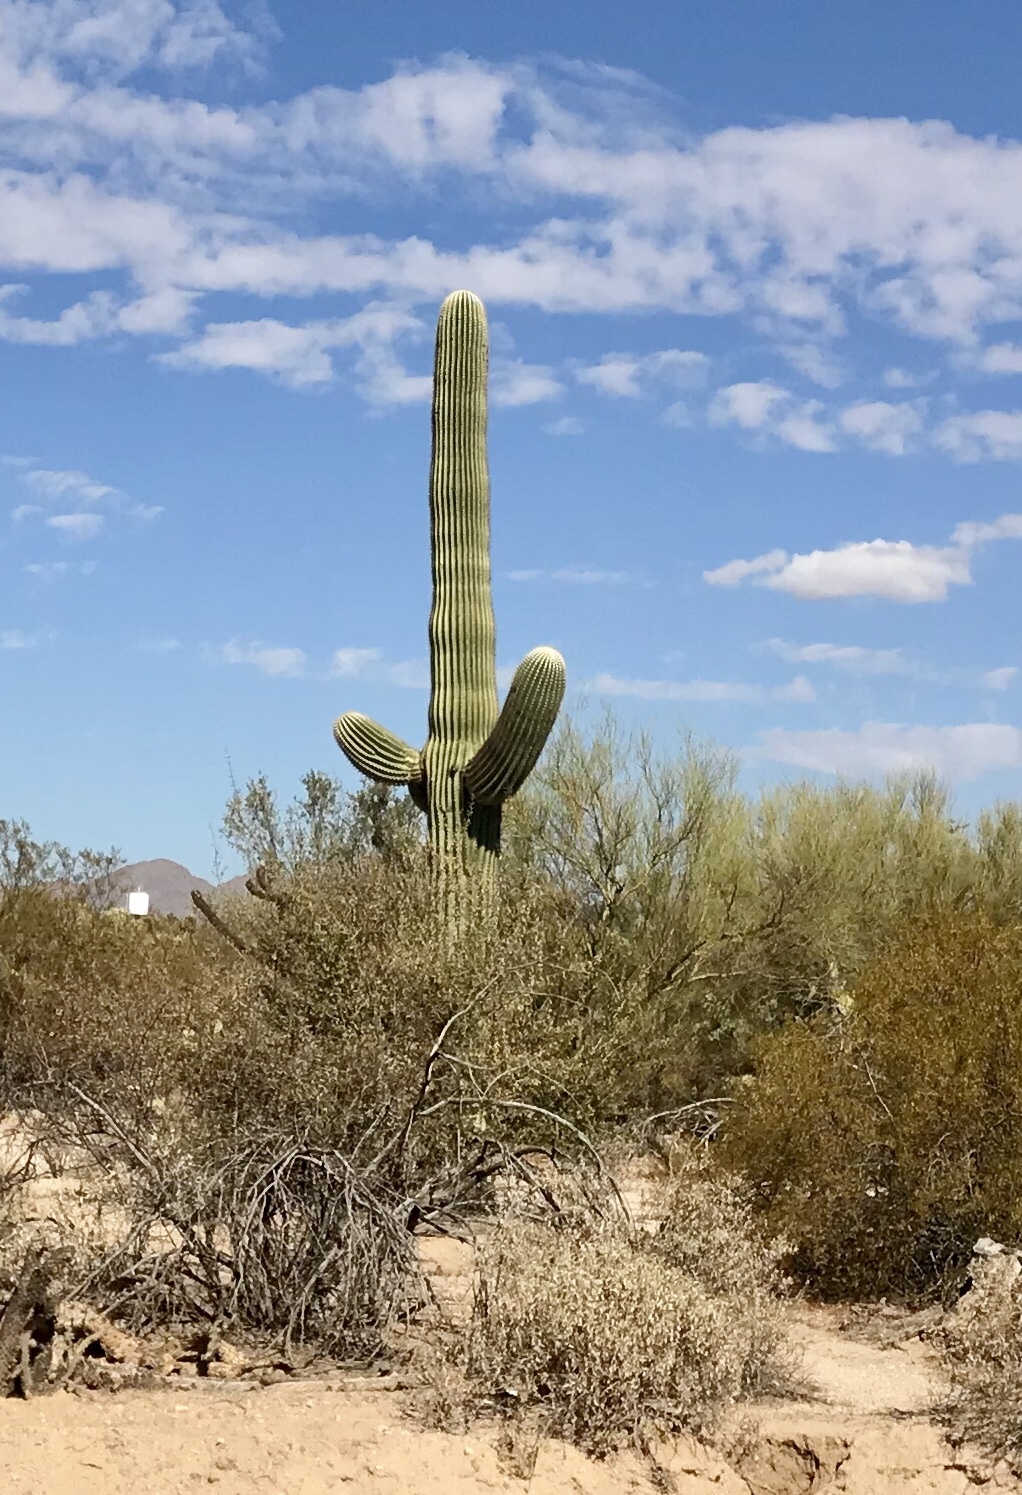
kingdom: Plantae
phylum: Tracheophyta
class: Magnoliopsida
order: Caryophyllales
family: Cactaceae
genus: Carnegiea
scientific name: Carnegiea gigantea
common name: Saguaro
